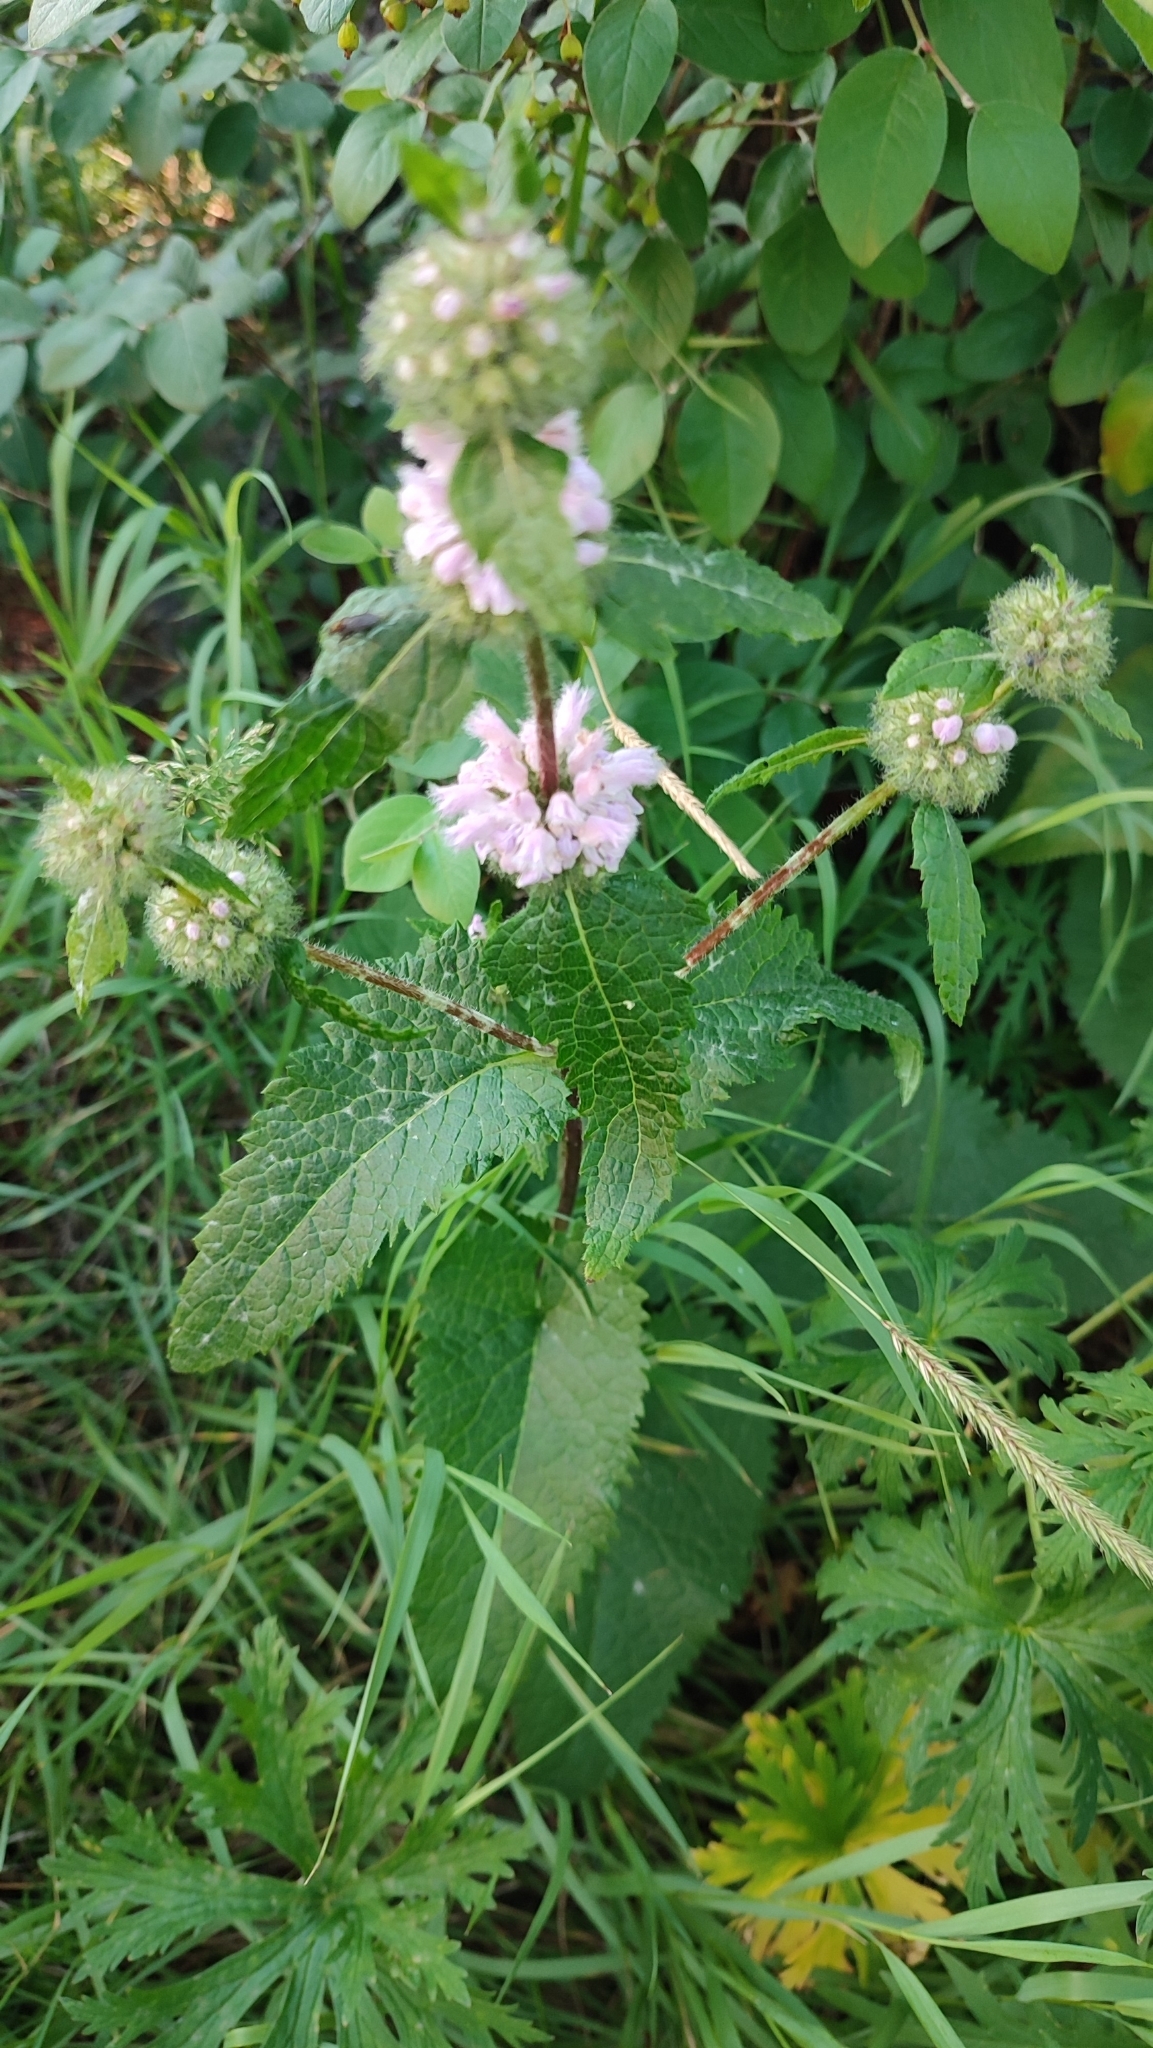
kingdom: Plantae
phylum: Tracheophyta
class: Magnoliopsida
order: Lamiales
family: Lamiaceae
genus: Phlomoides
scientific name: Phlomoides tuberosa
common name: Tuberous jerusalem sage
